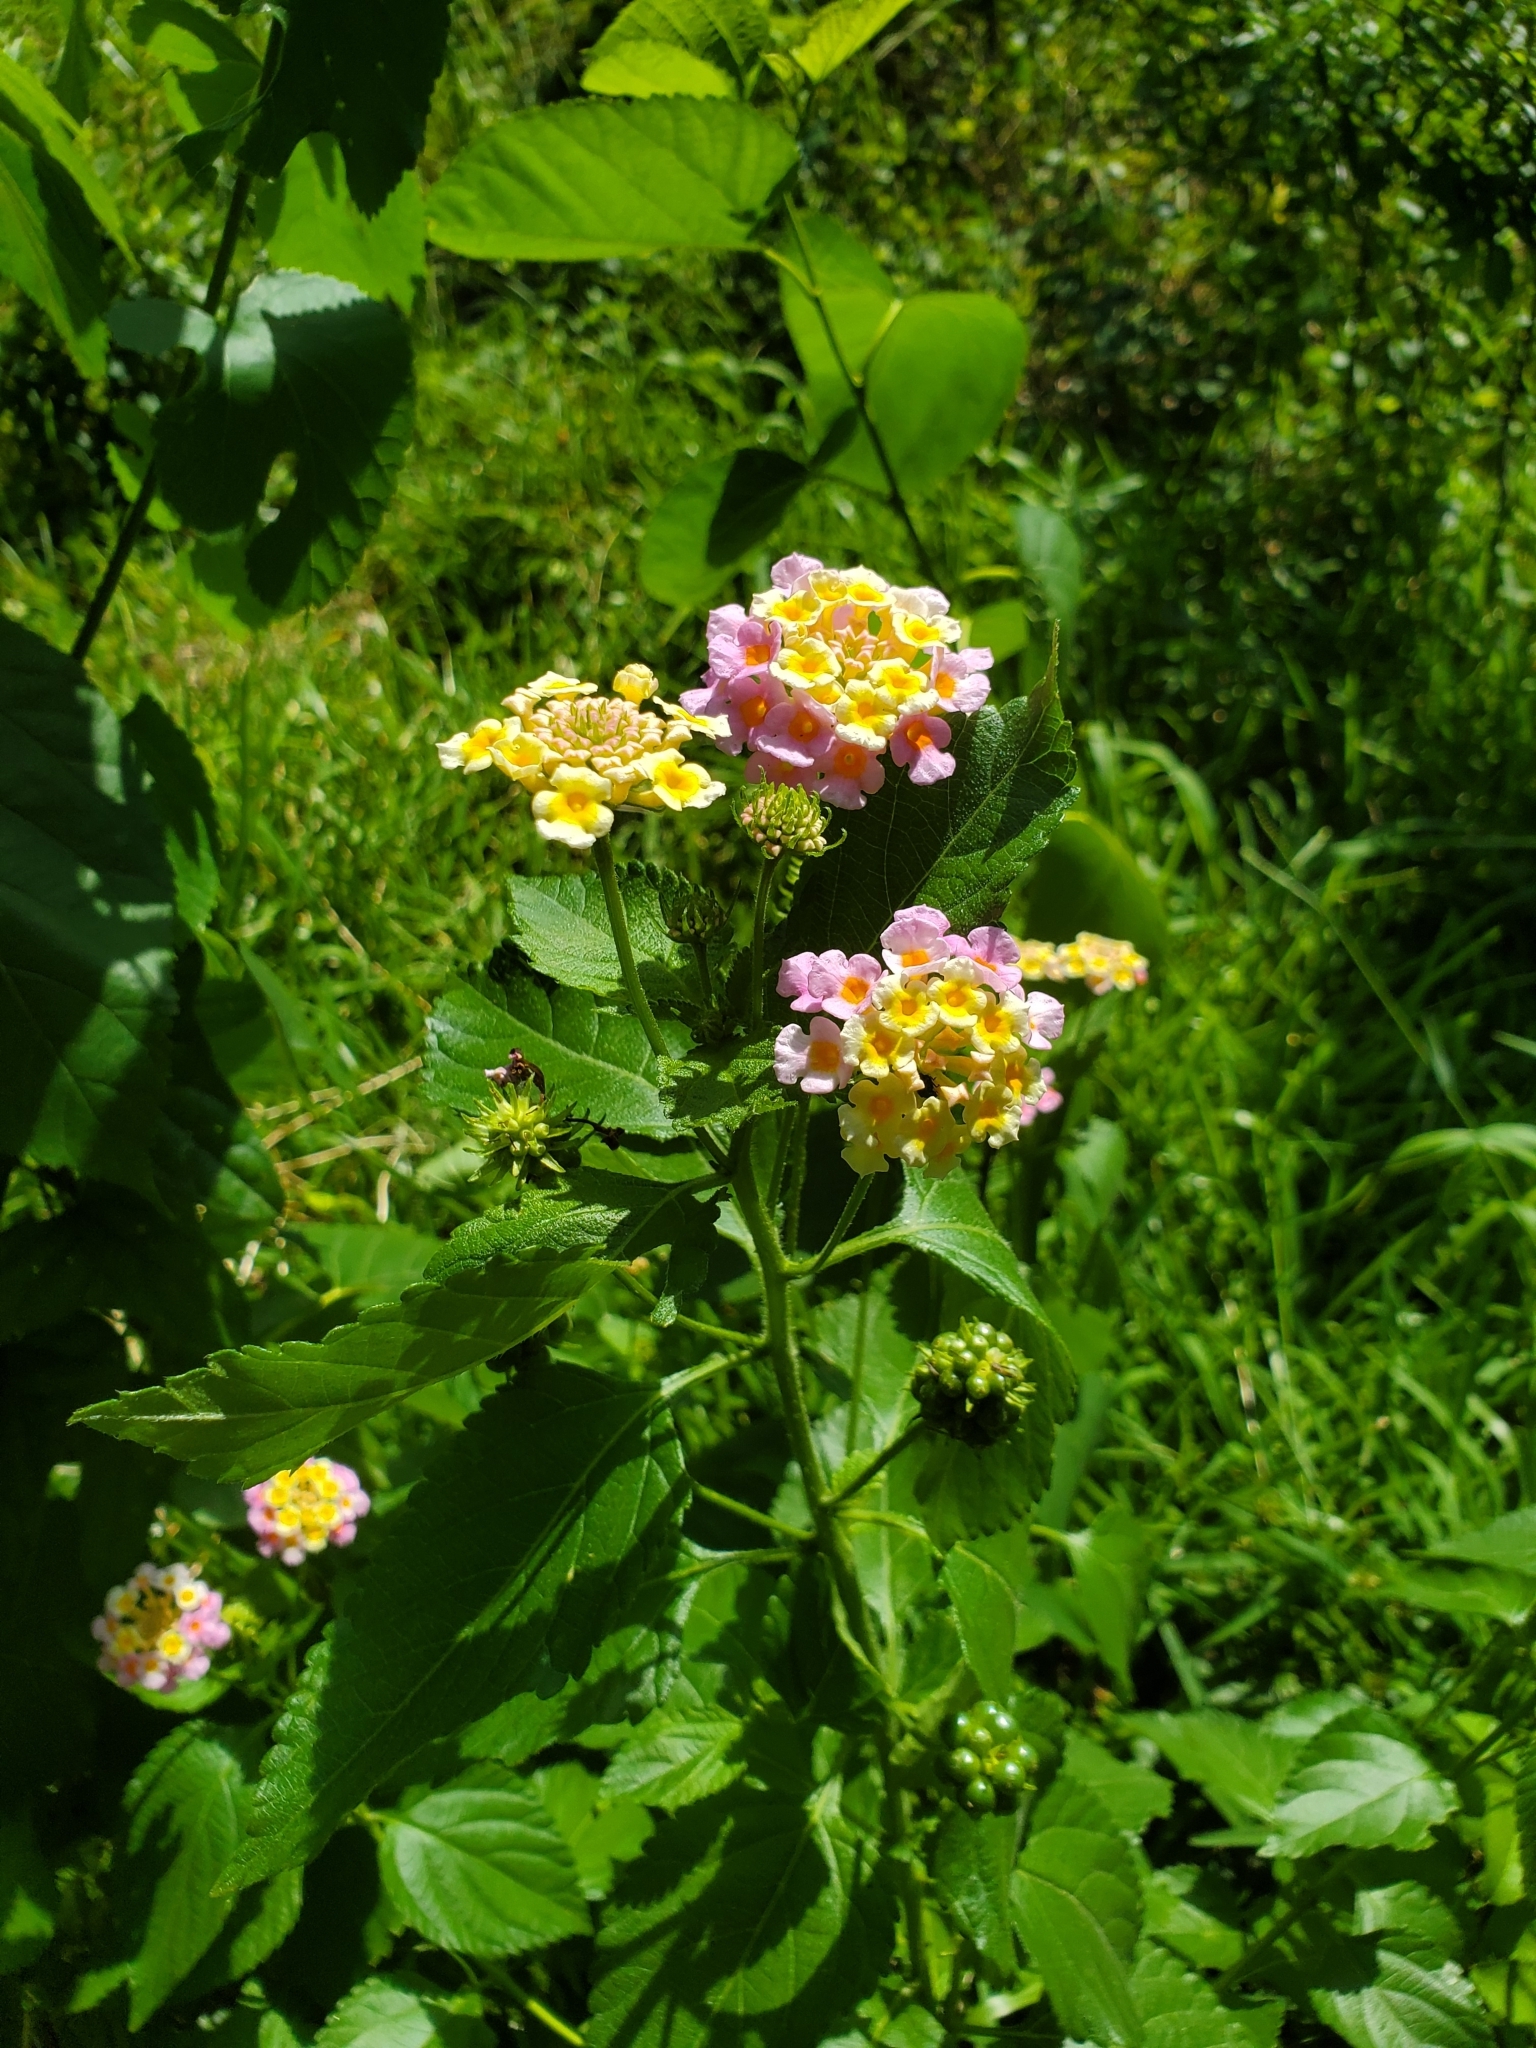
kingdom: Plantae
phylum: Tracheophyta
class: Magnoliopsida
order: Lamiales
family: Verbenaceae
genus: Lantana
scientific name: Lantana strigocamara
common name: Lantana
